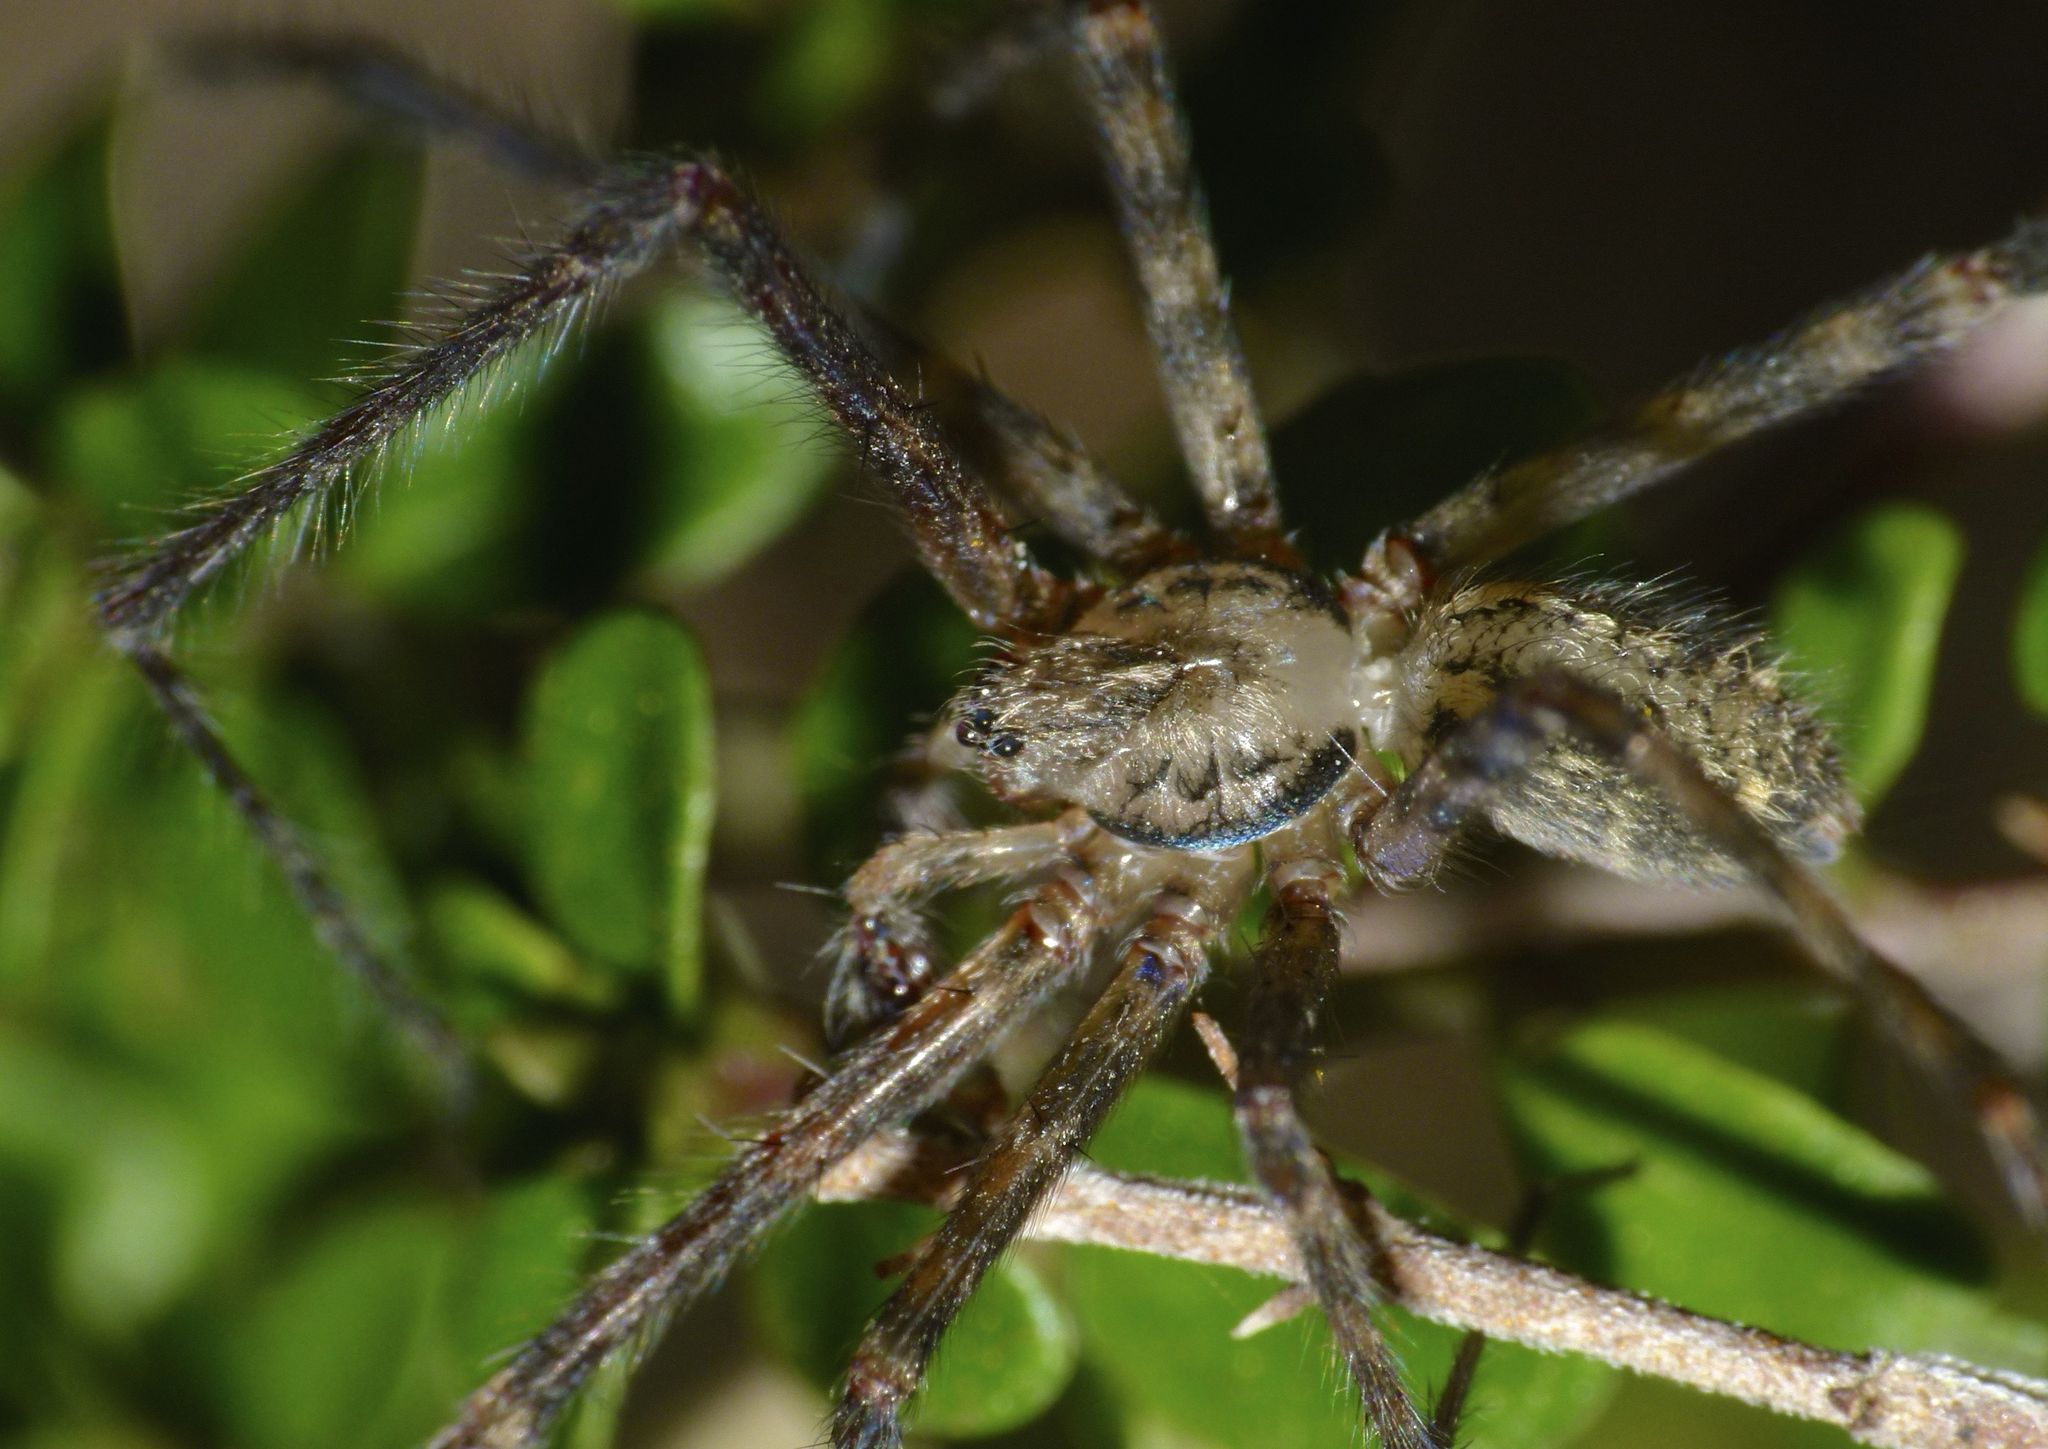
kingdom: Animalia
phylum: Arthropoda
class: Arachnida
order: Araneae
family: Stiphidiidae
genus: Stiphidion
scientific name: Stiphidion facetum
